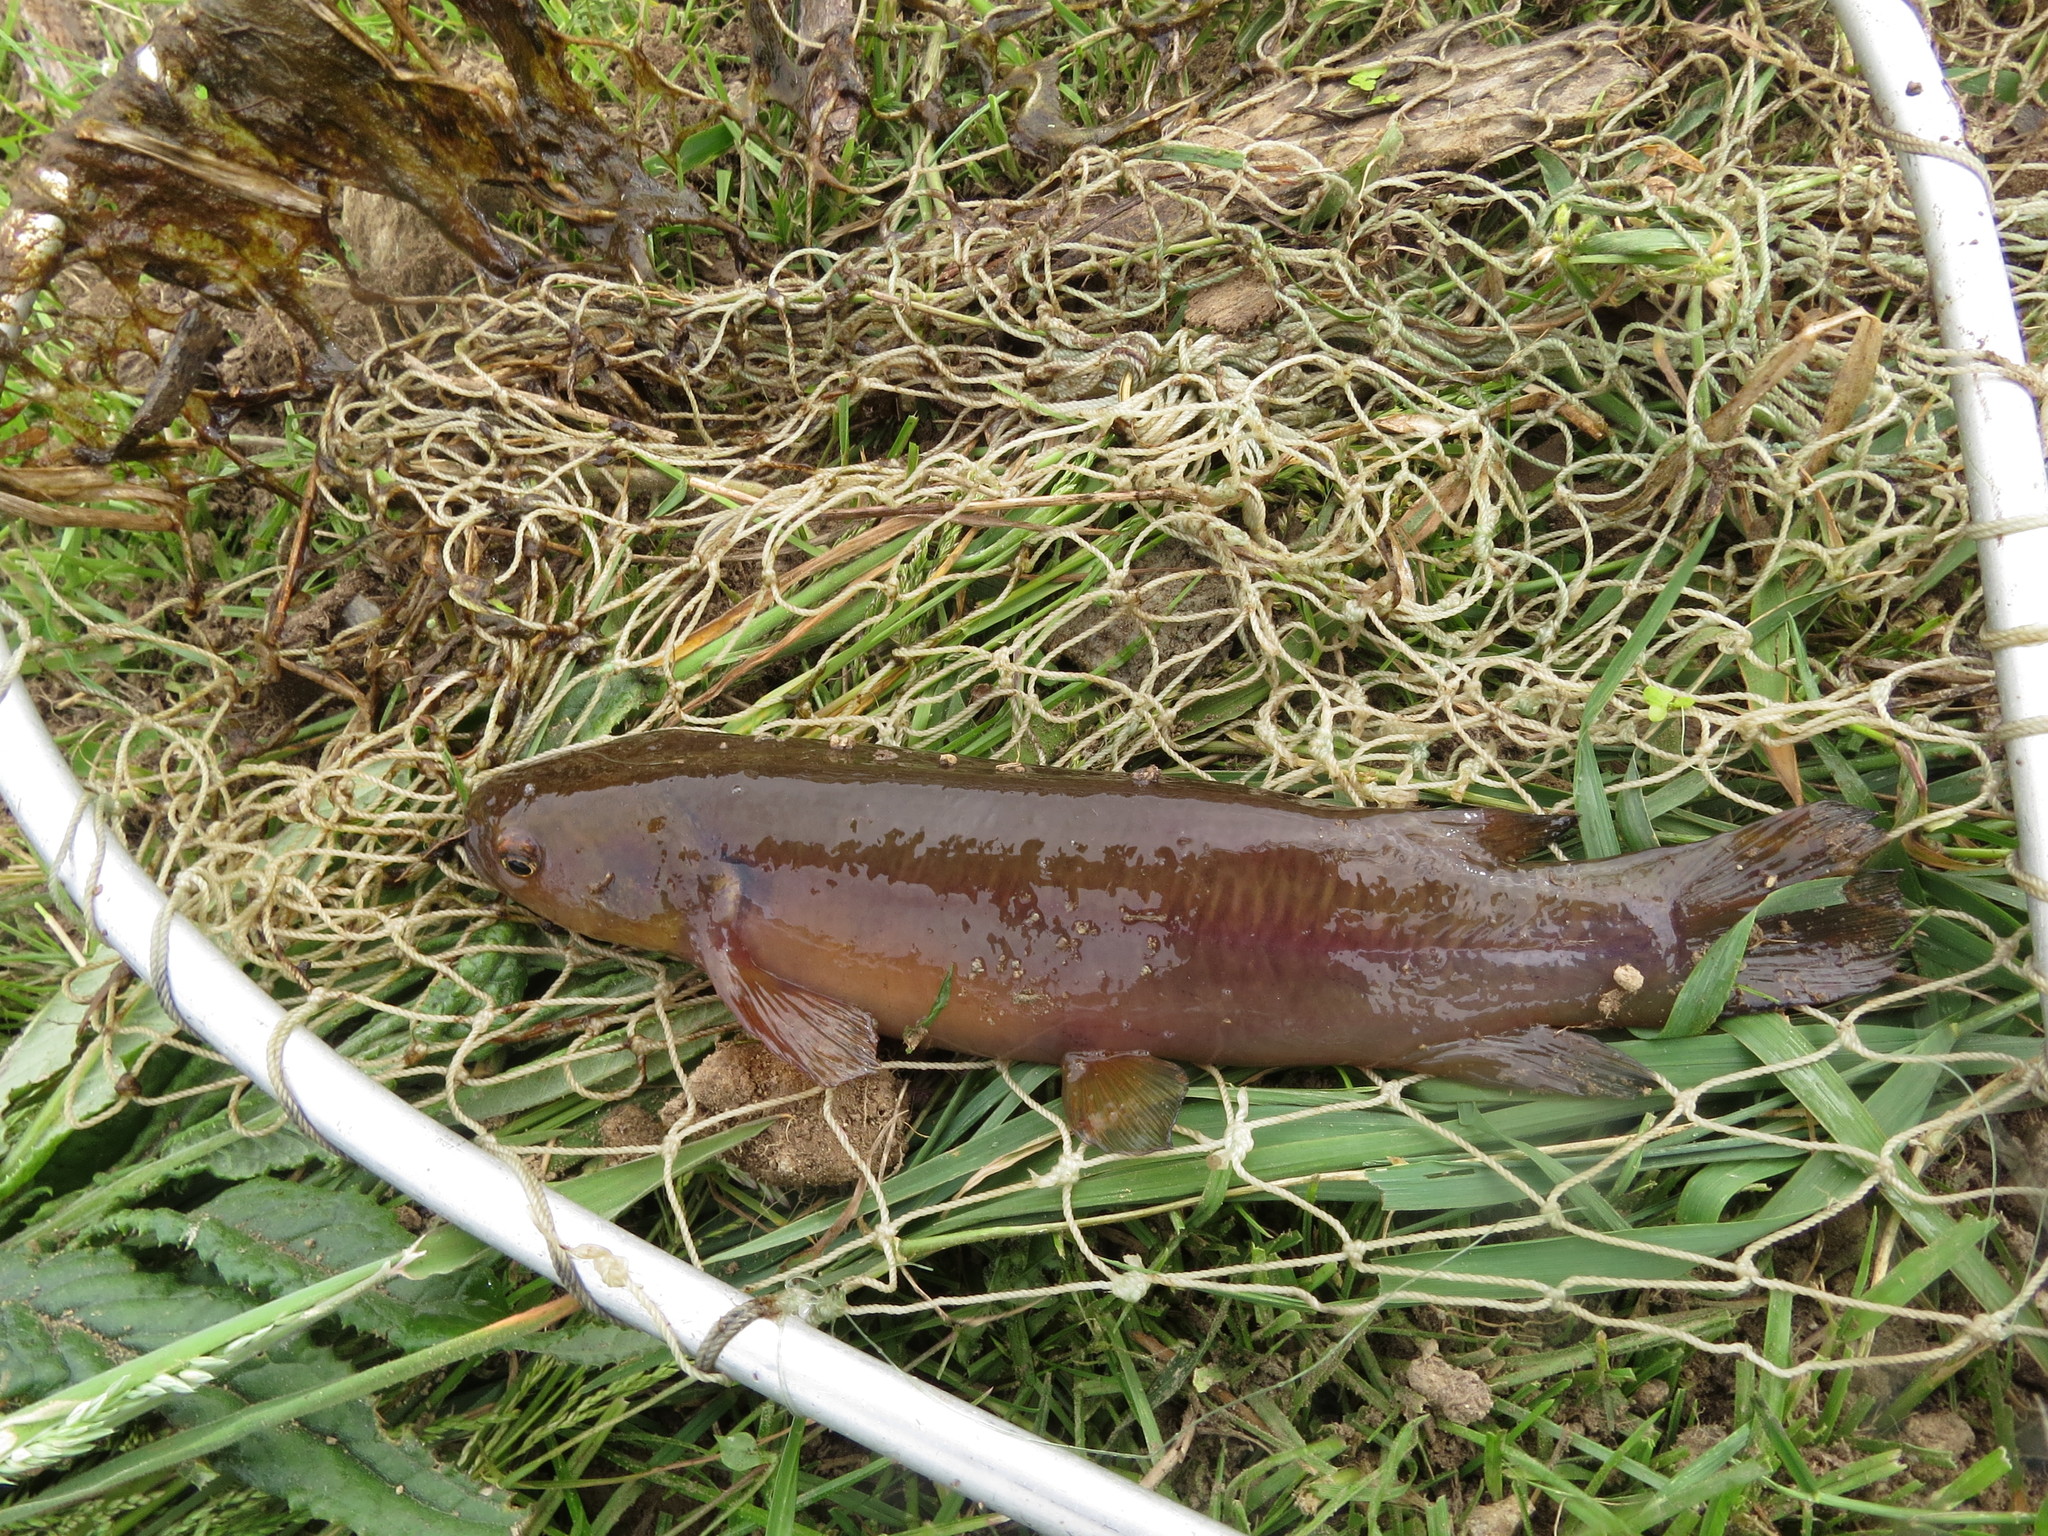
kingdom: Animalia
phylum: Chordata
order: Osmeriformes
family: Galaxiidae
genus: Galaxias
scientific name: Galaxias fasciatus
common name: Banded kokopu
